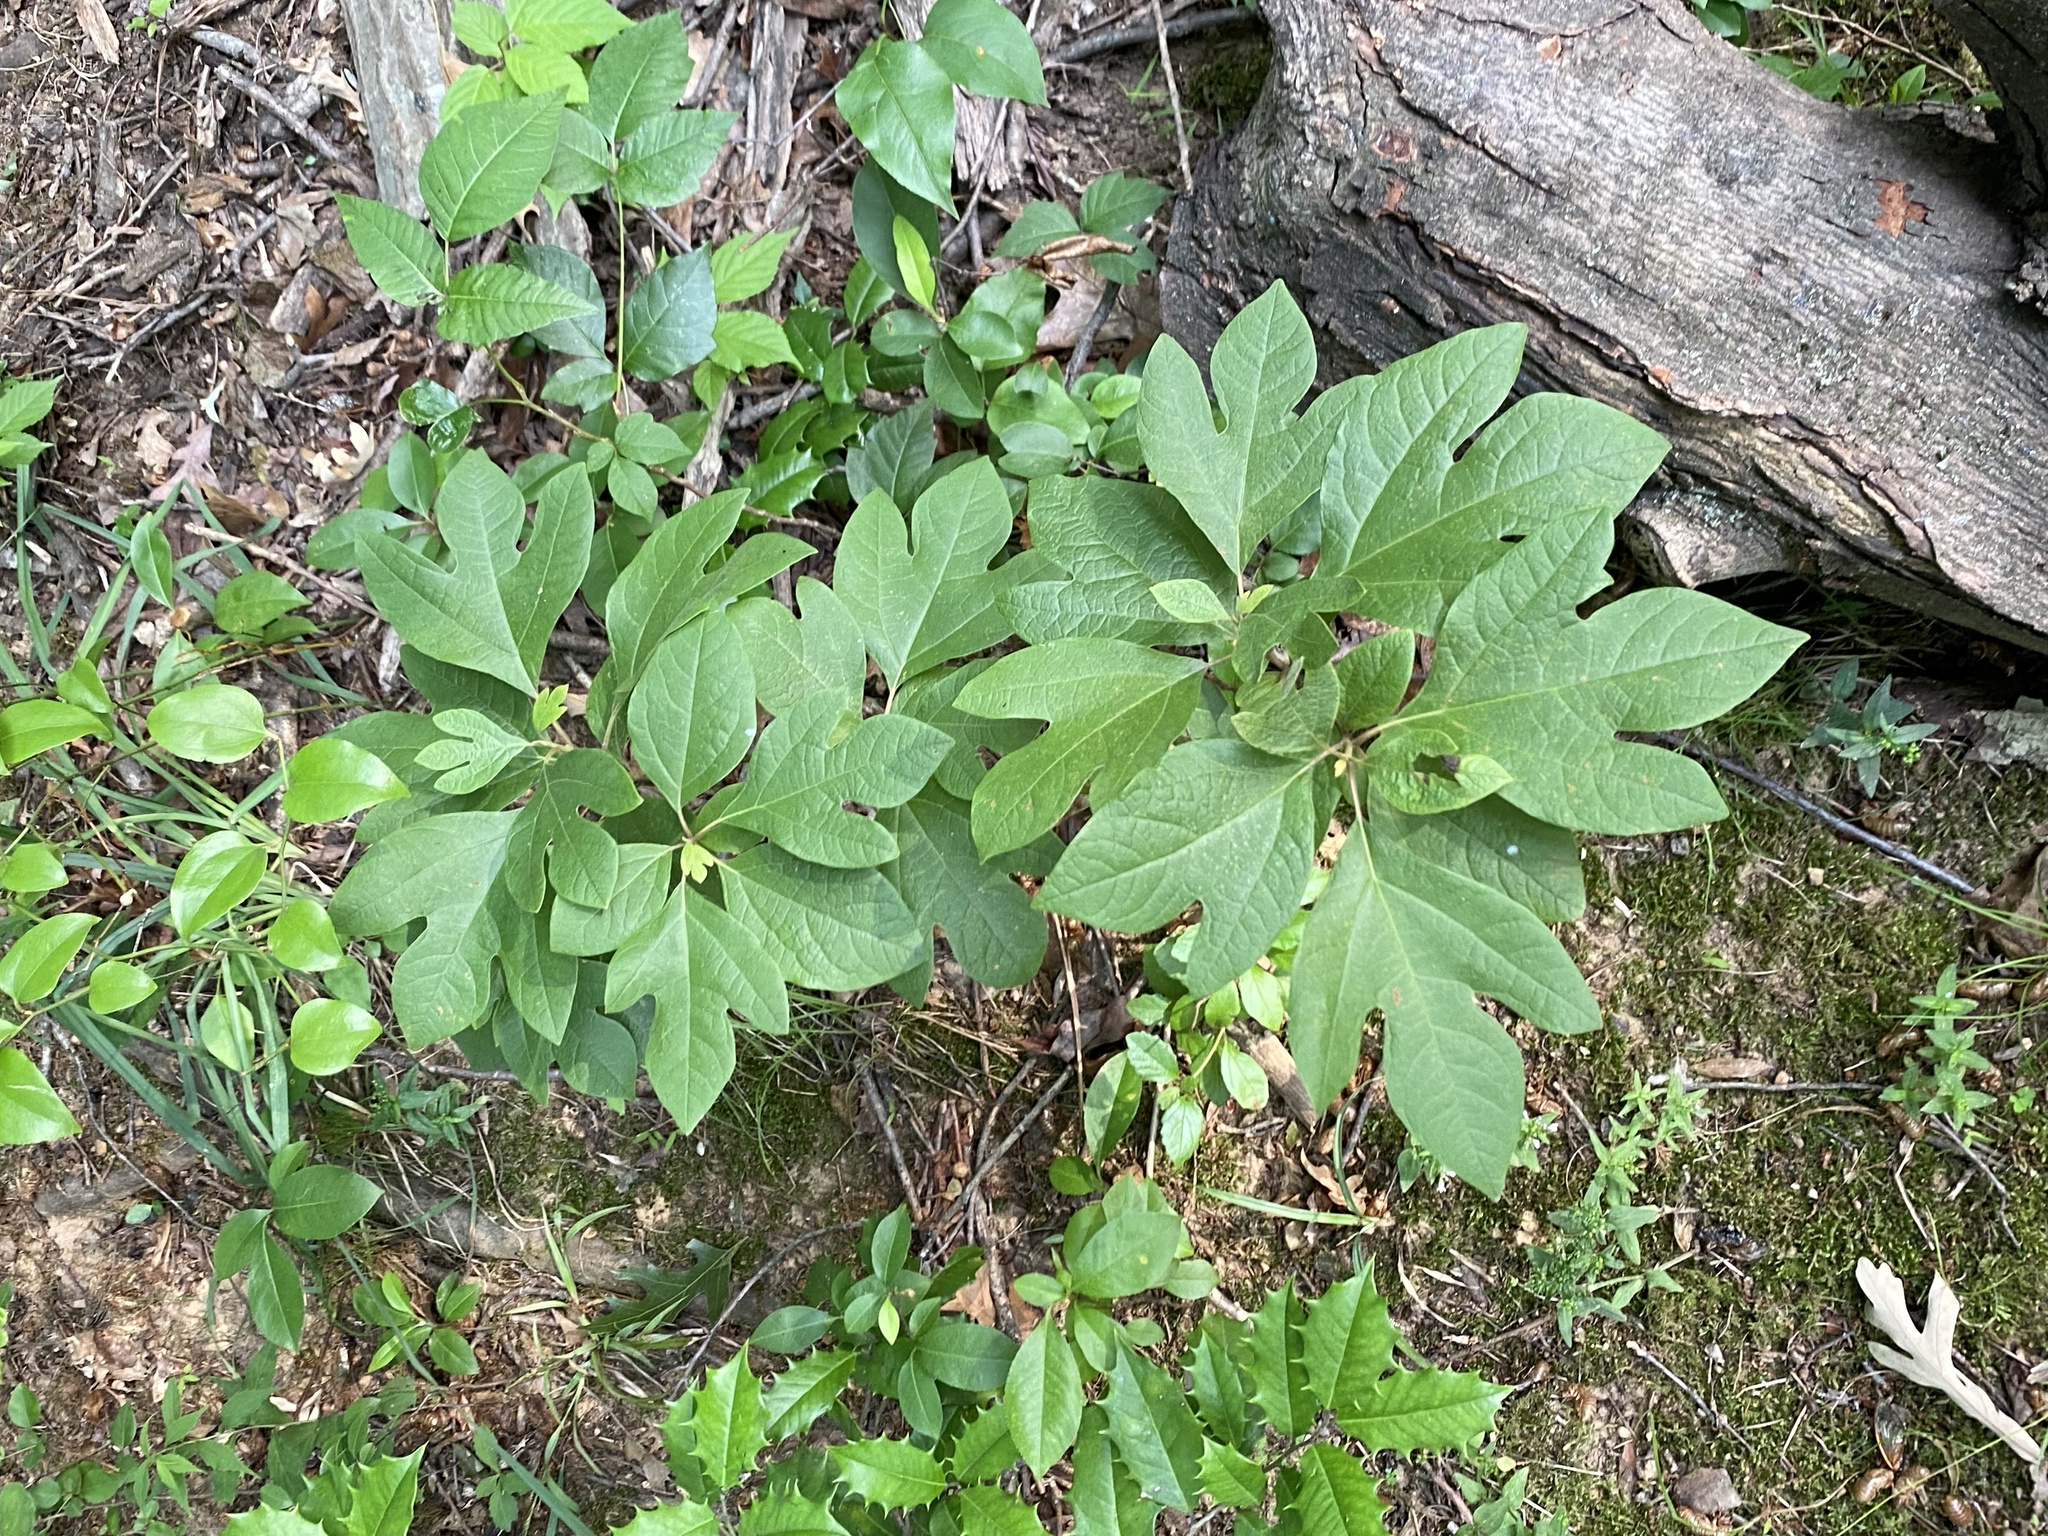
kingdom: Plantae
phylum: Tracheophyta
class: Magnoliopsida
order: Laurales
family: Lauraceae
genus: Sassafras
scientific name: Sassafras albidum
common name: Sassafras
